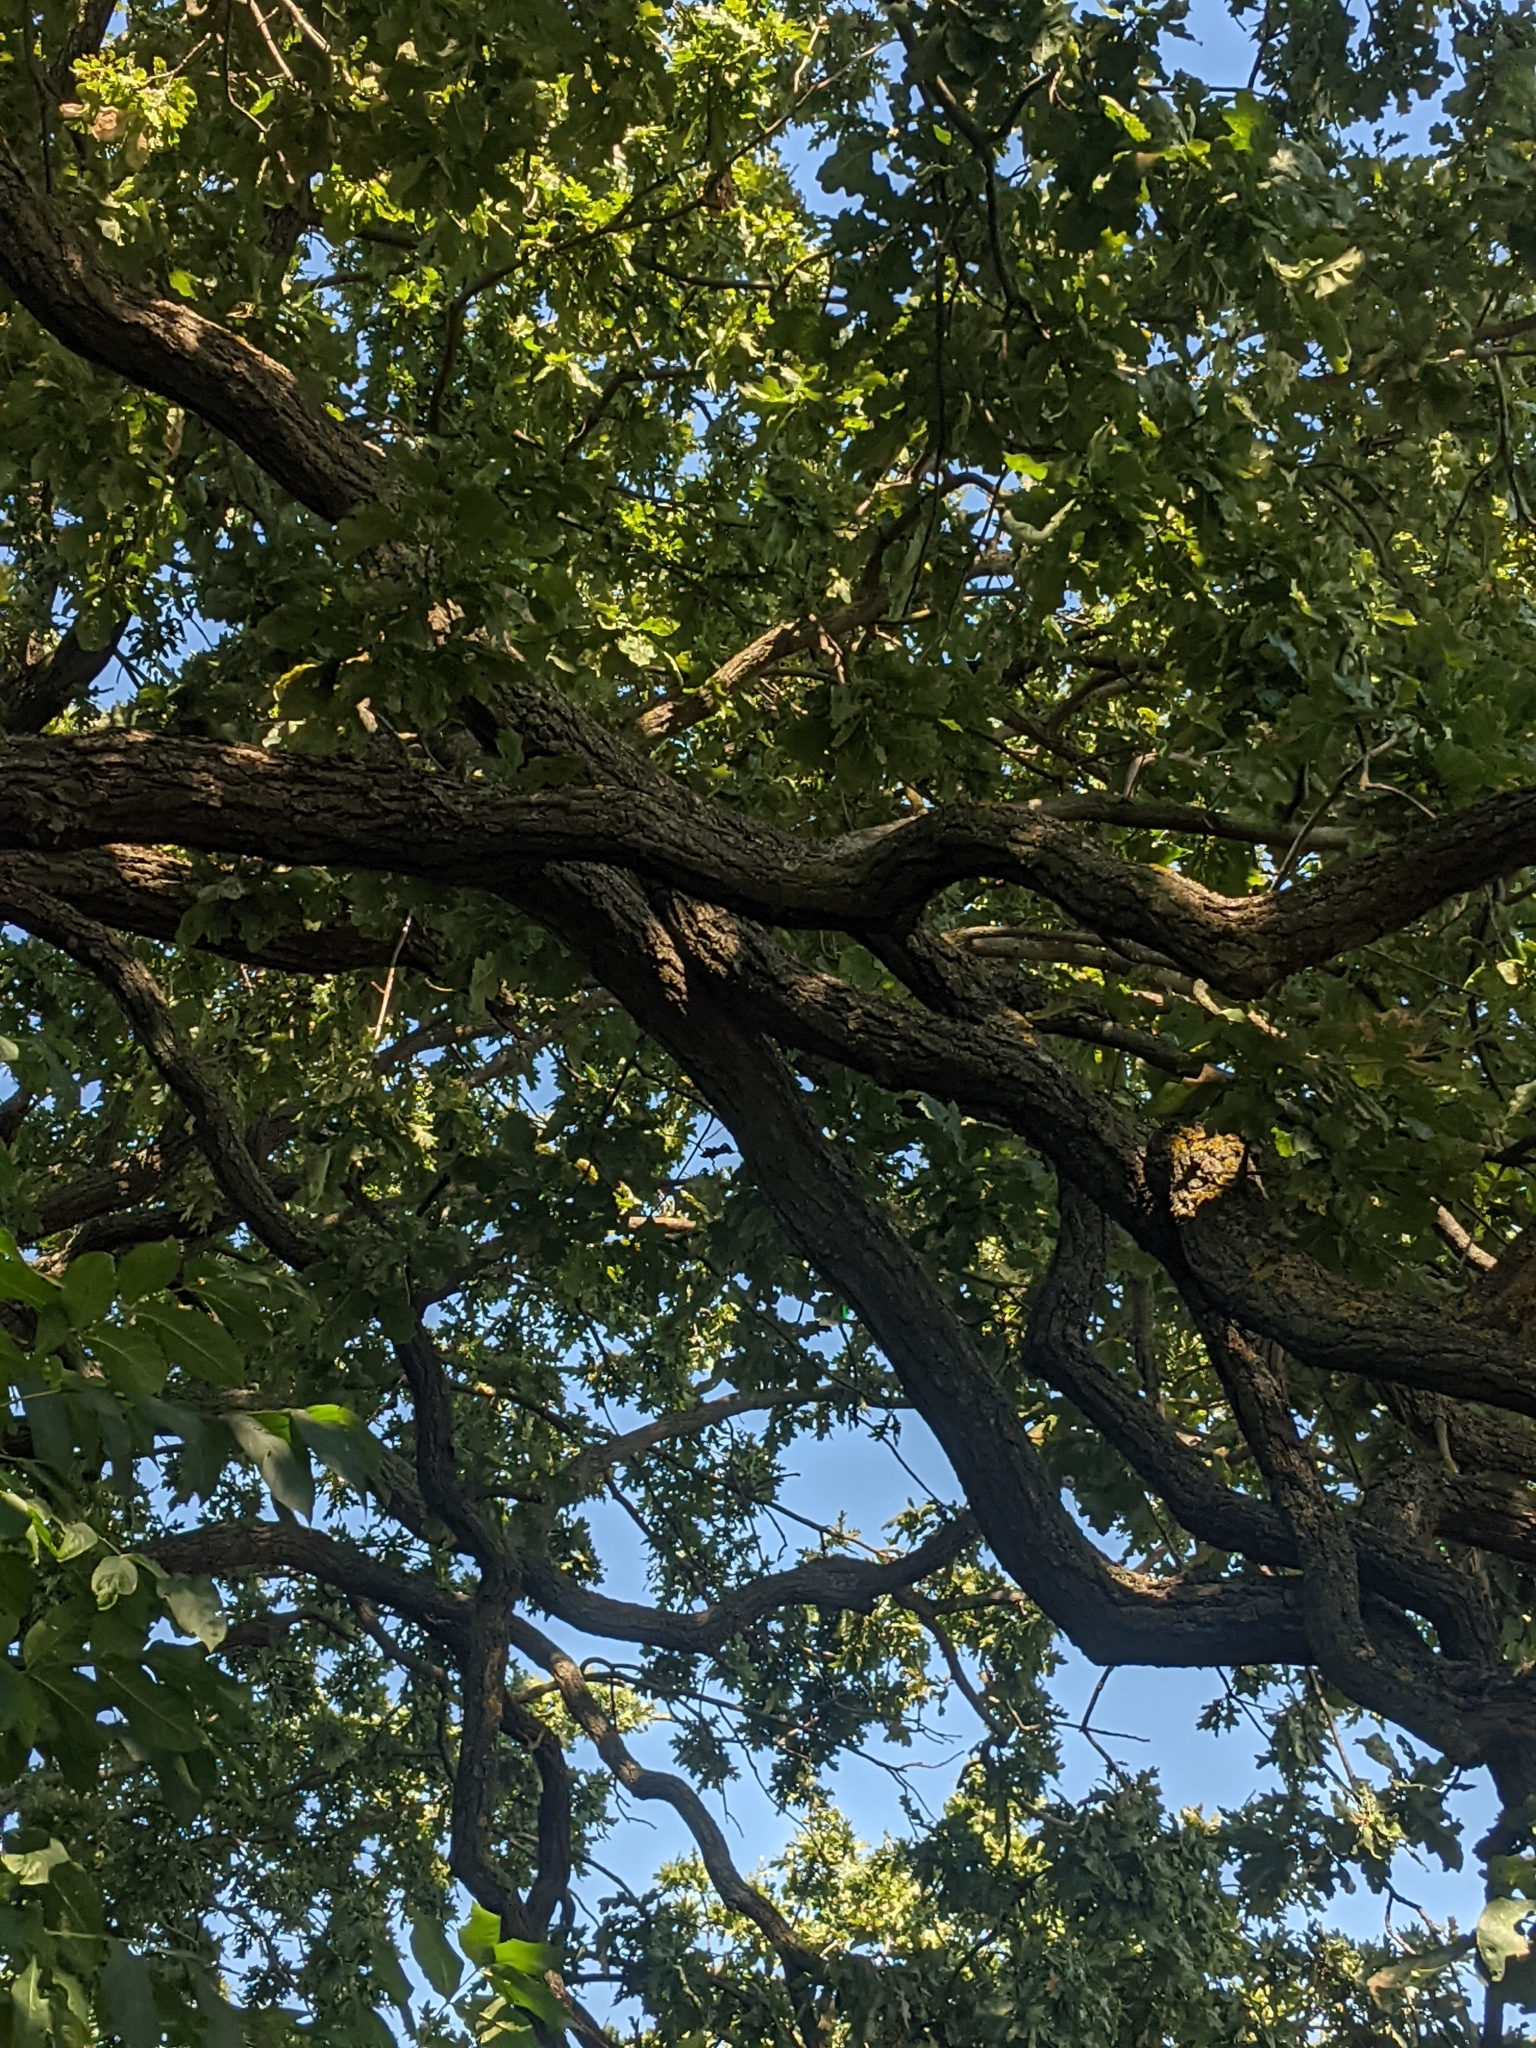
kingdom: Plantae
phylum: Tracheophyta
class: Magnoliopsida
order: Fagales
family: Fagaceae
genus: Quercus
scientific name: Quercus robur
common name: Pedunculate oak
